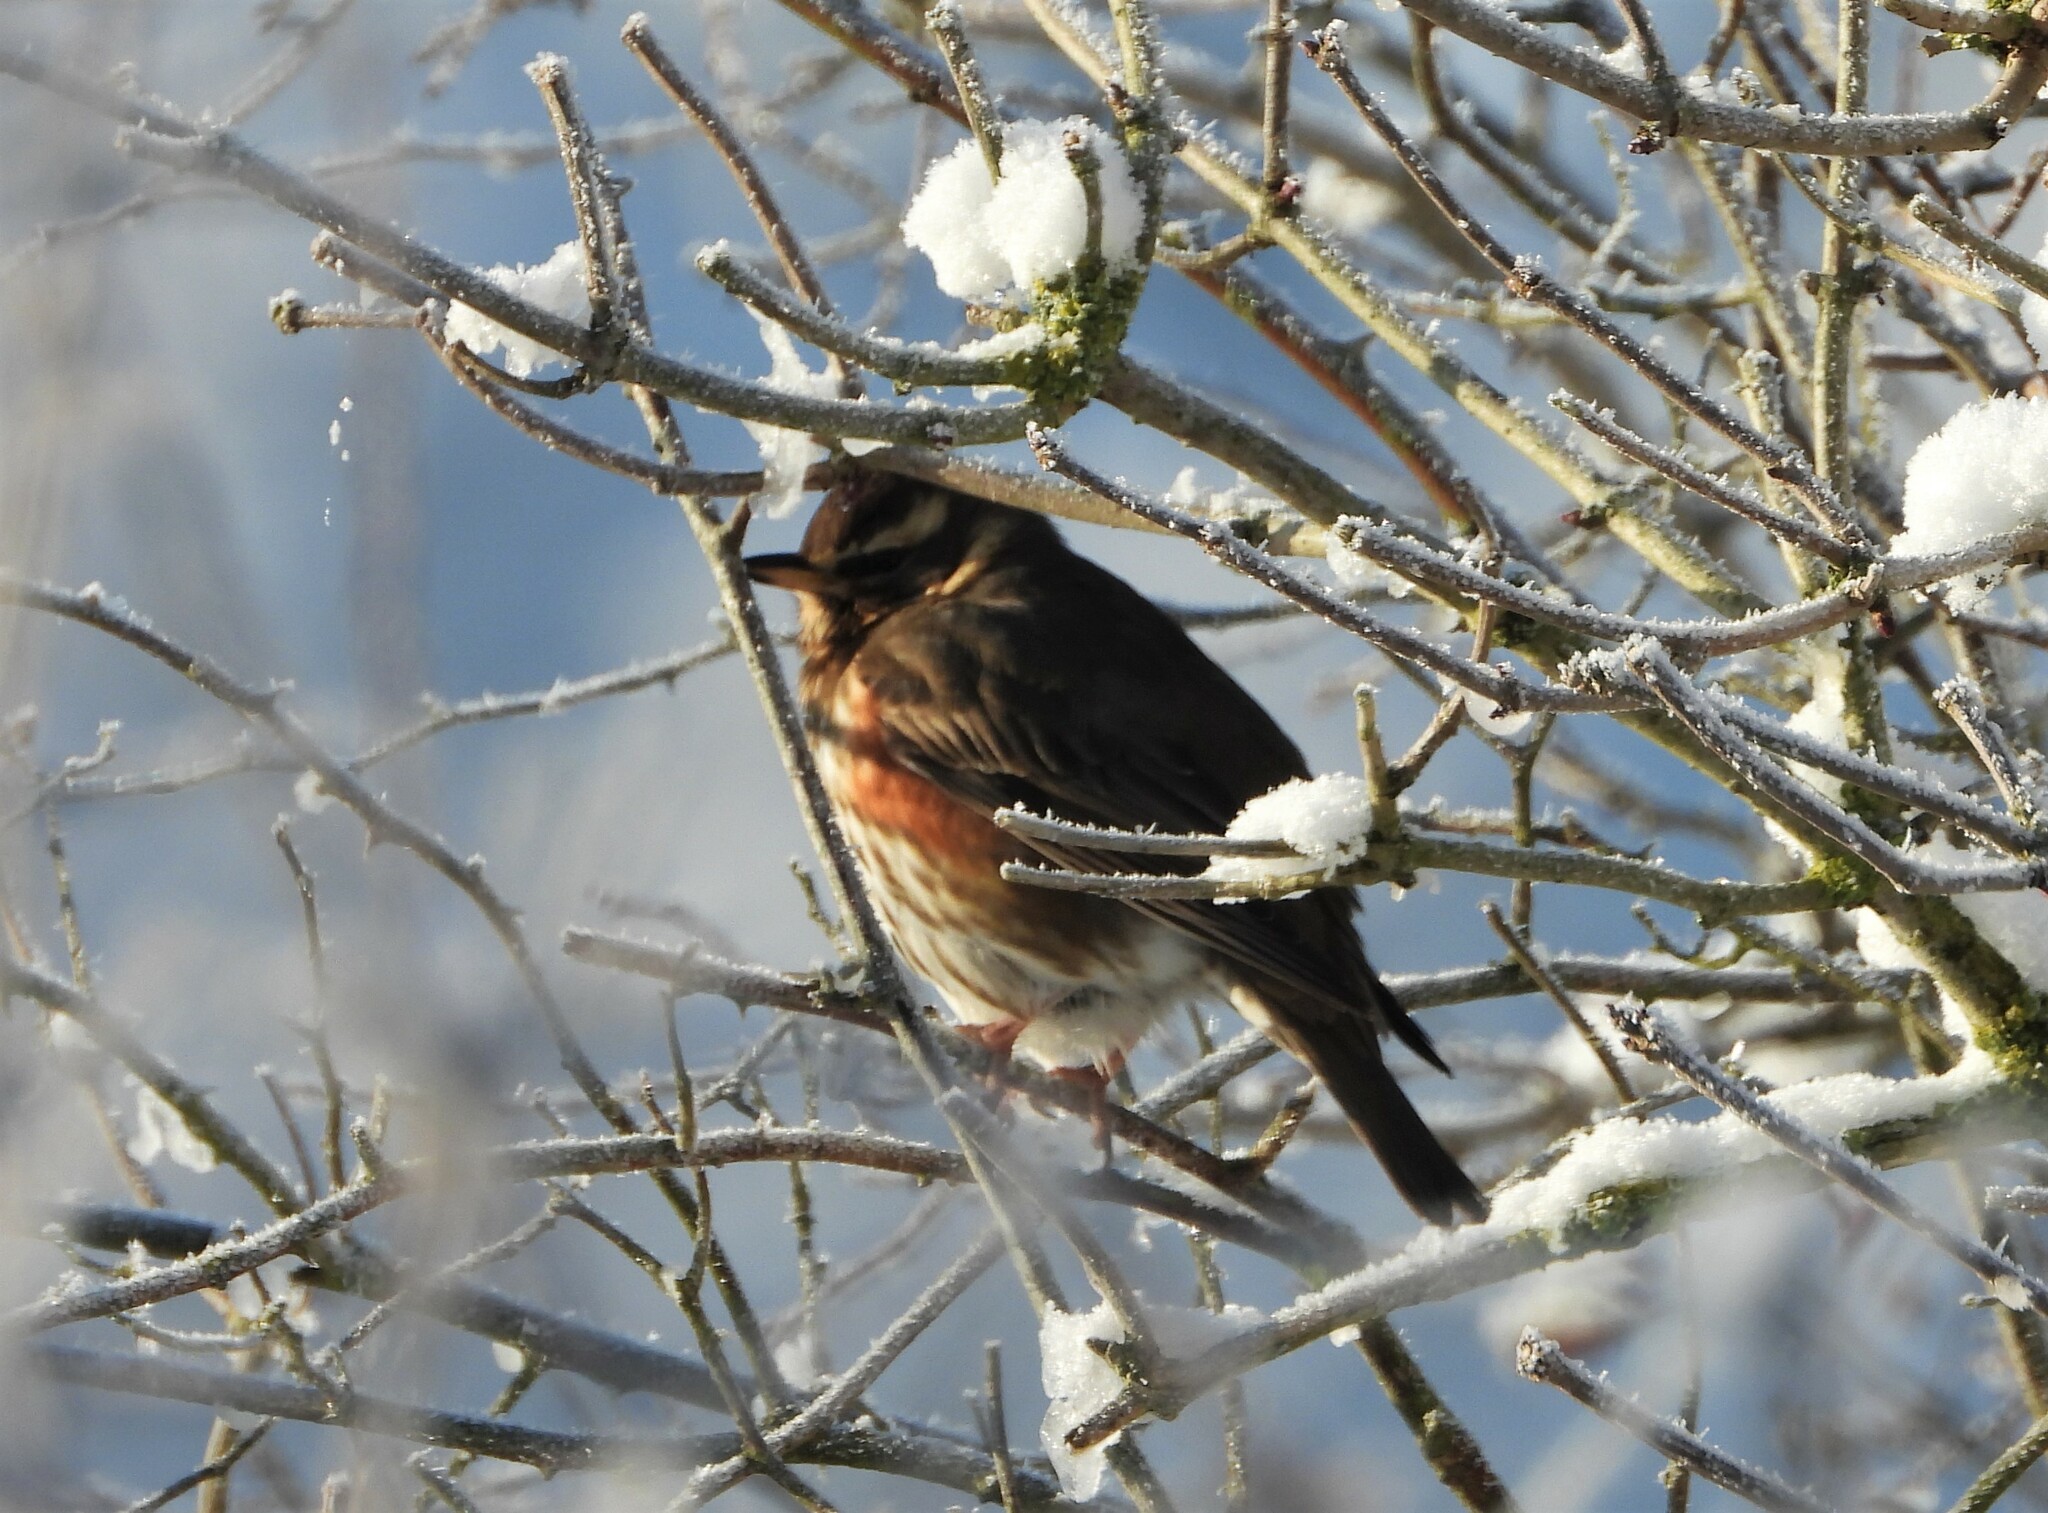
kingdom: Animalia
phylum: Chordata
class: Aves
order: Passeriformes
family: Turdidae
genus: Turdus
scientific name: Turdus iliacus
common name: Redwing
